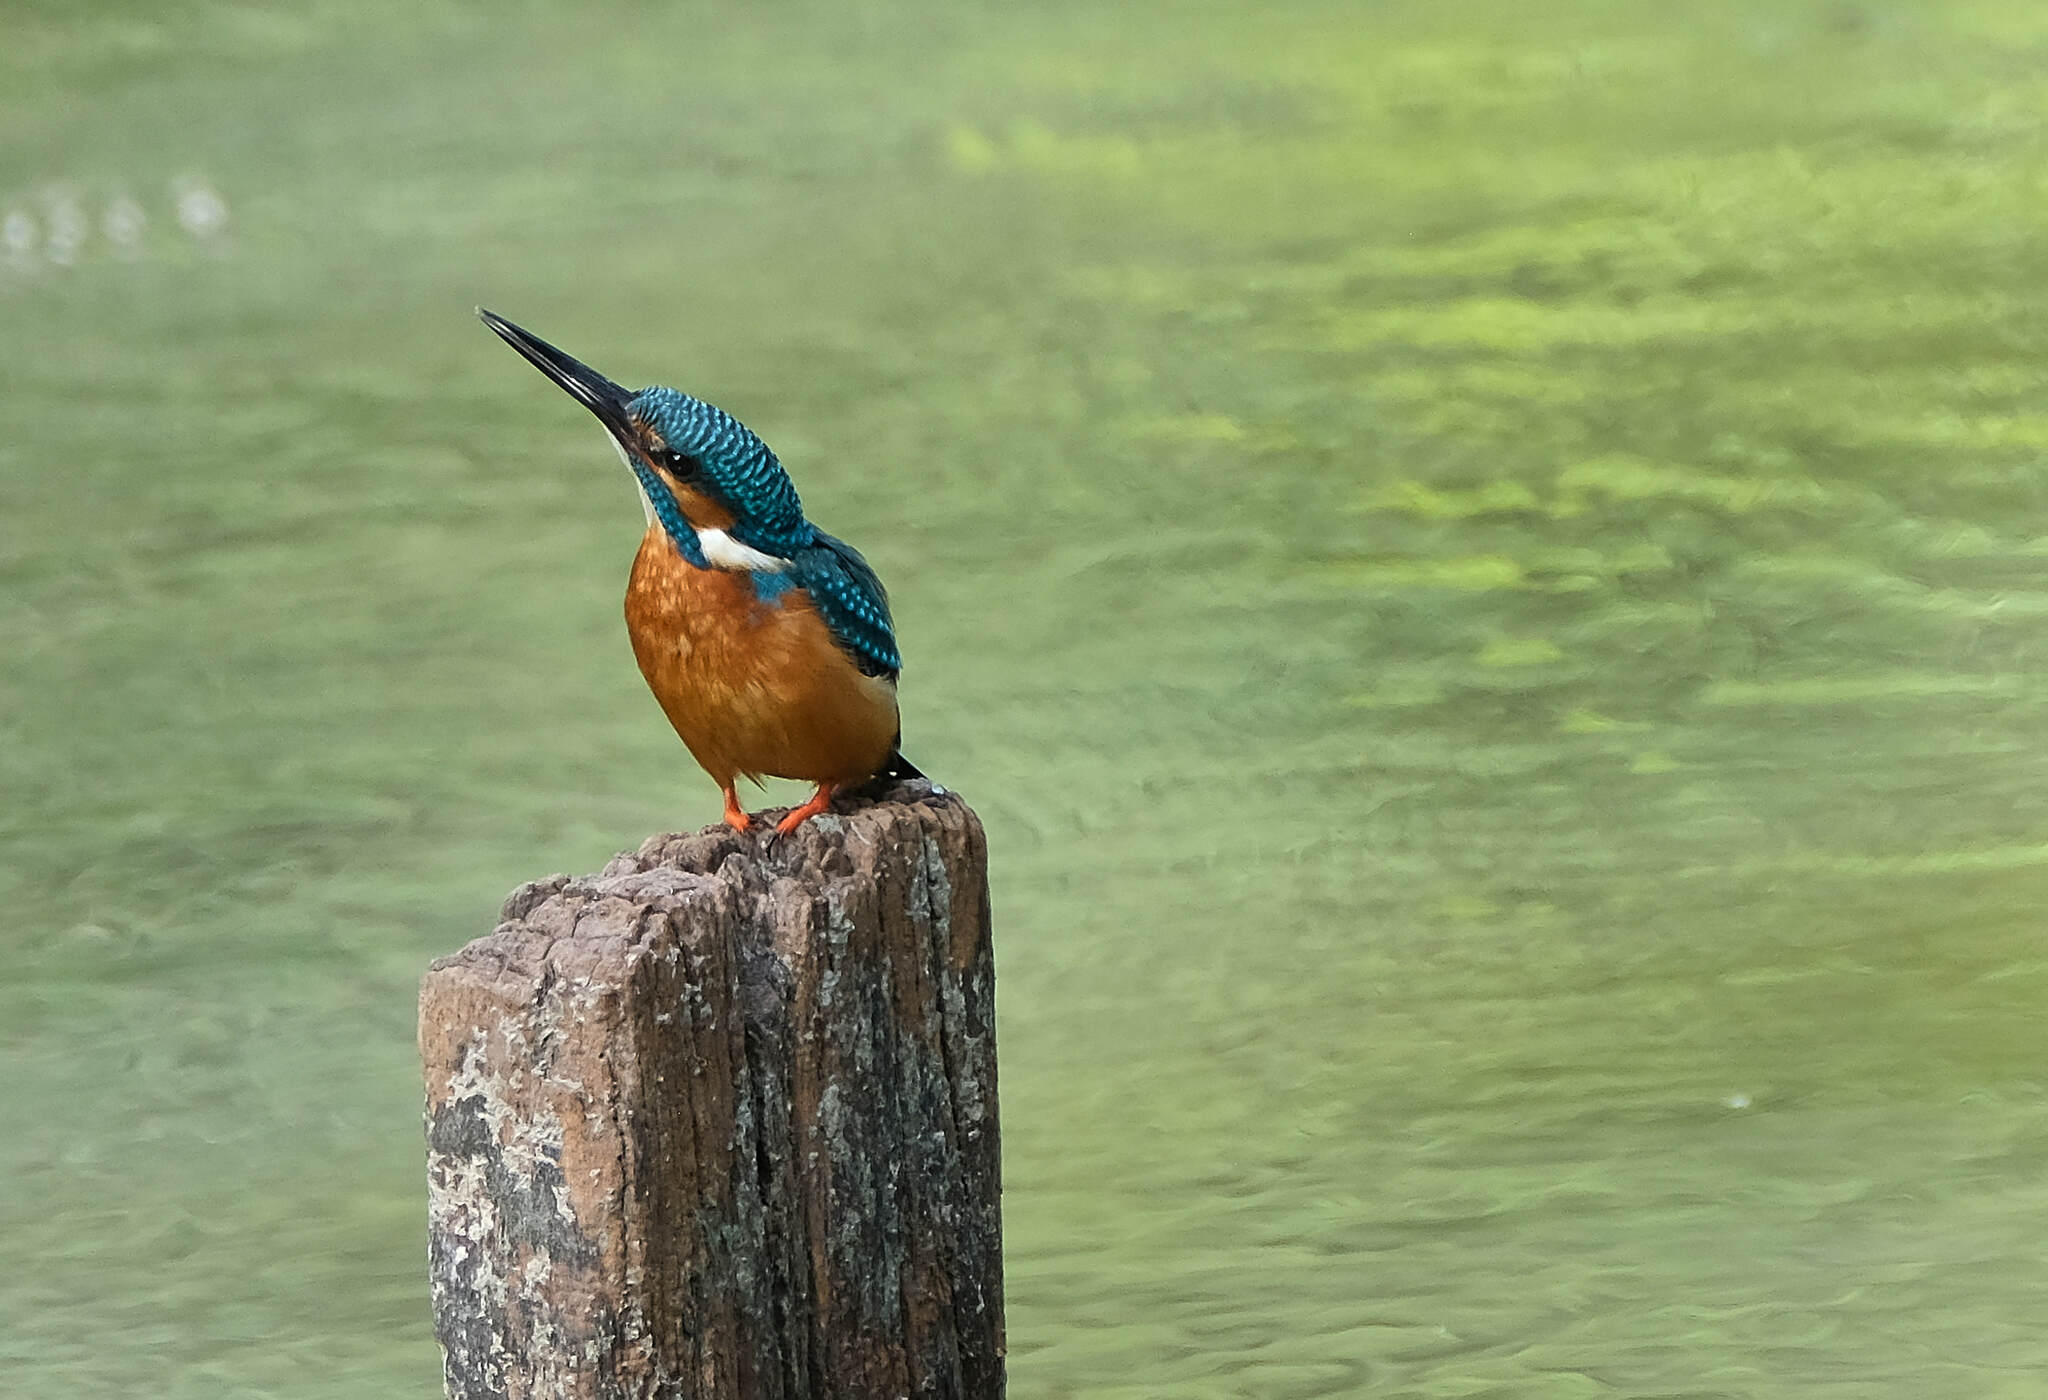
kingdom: Animalia
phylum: Chordata
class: Aves
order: Coraciiformes
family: Alcedinidae
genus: Alcedo
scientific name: Alcedo atthis
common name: Common kingfisher
